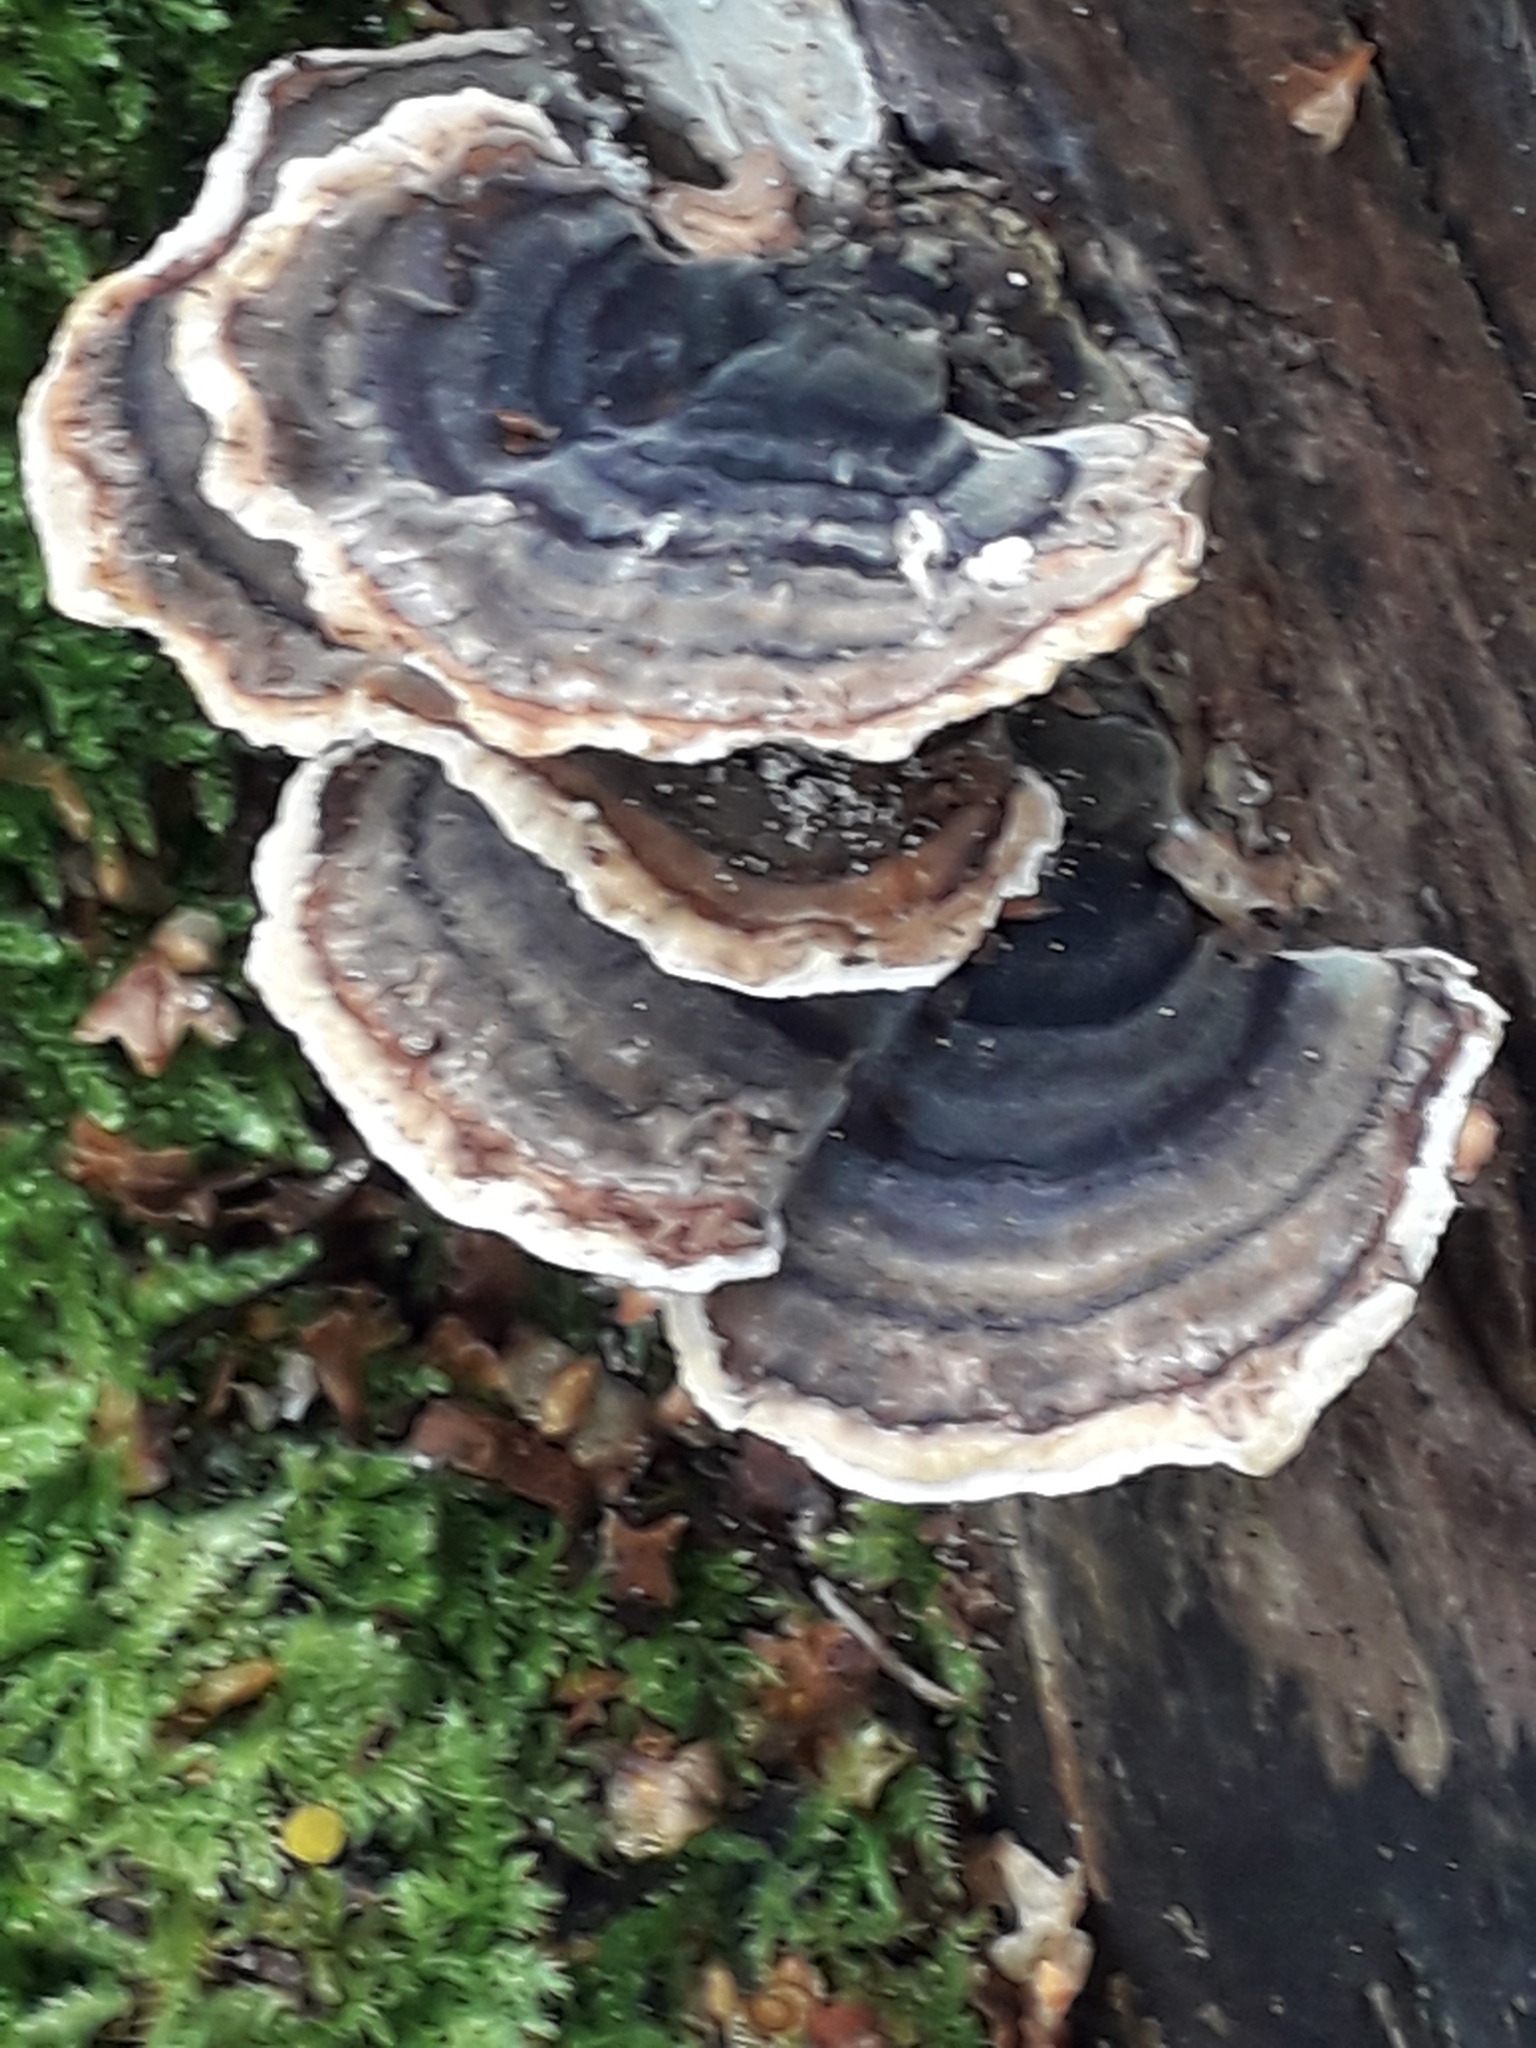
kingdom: Fungi
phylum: Basidiomycota
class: Agaricomycetes
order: Polyporales
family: Polyporaceae
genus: Trametes
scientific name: Trametes versicolor
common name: Turkeytail
